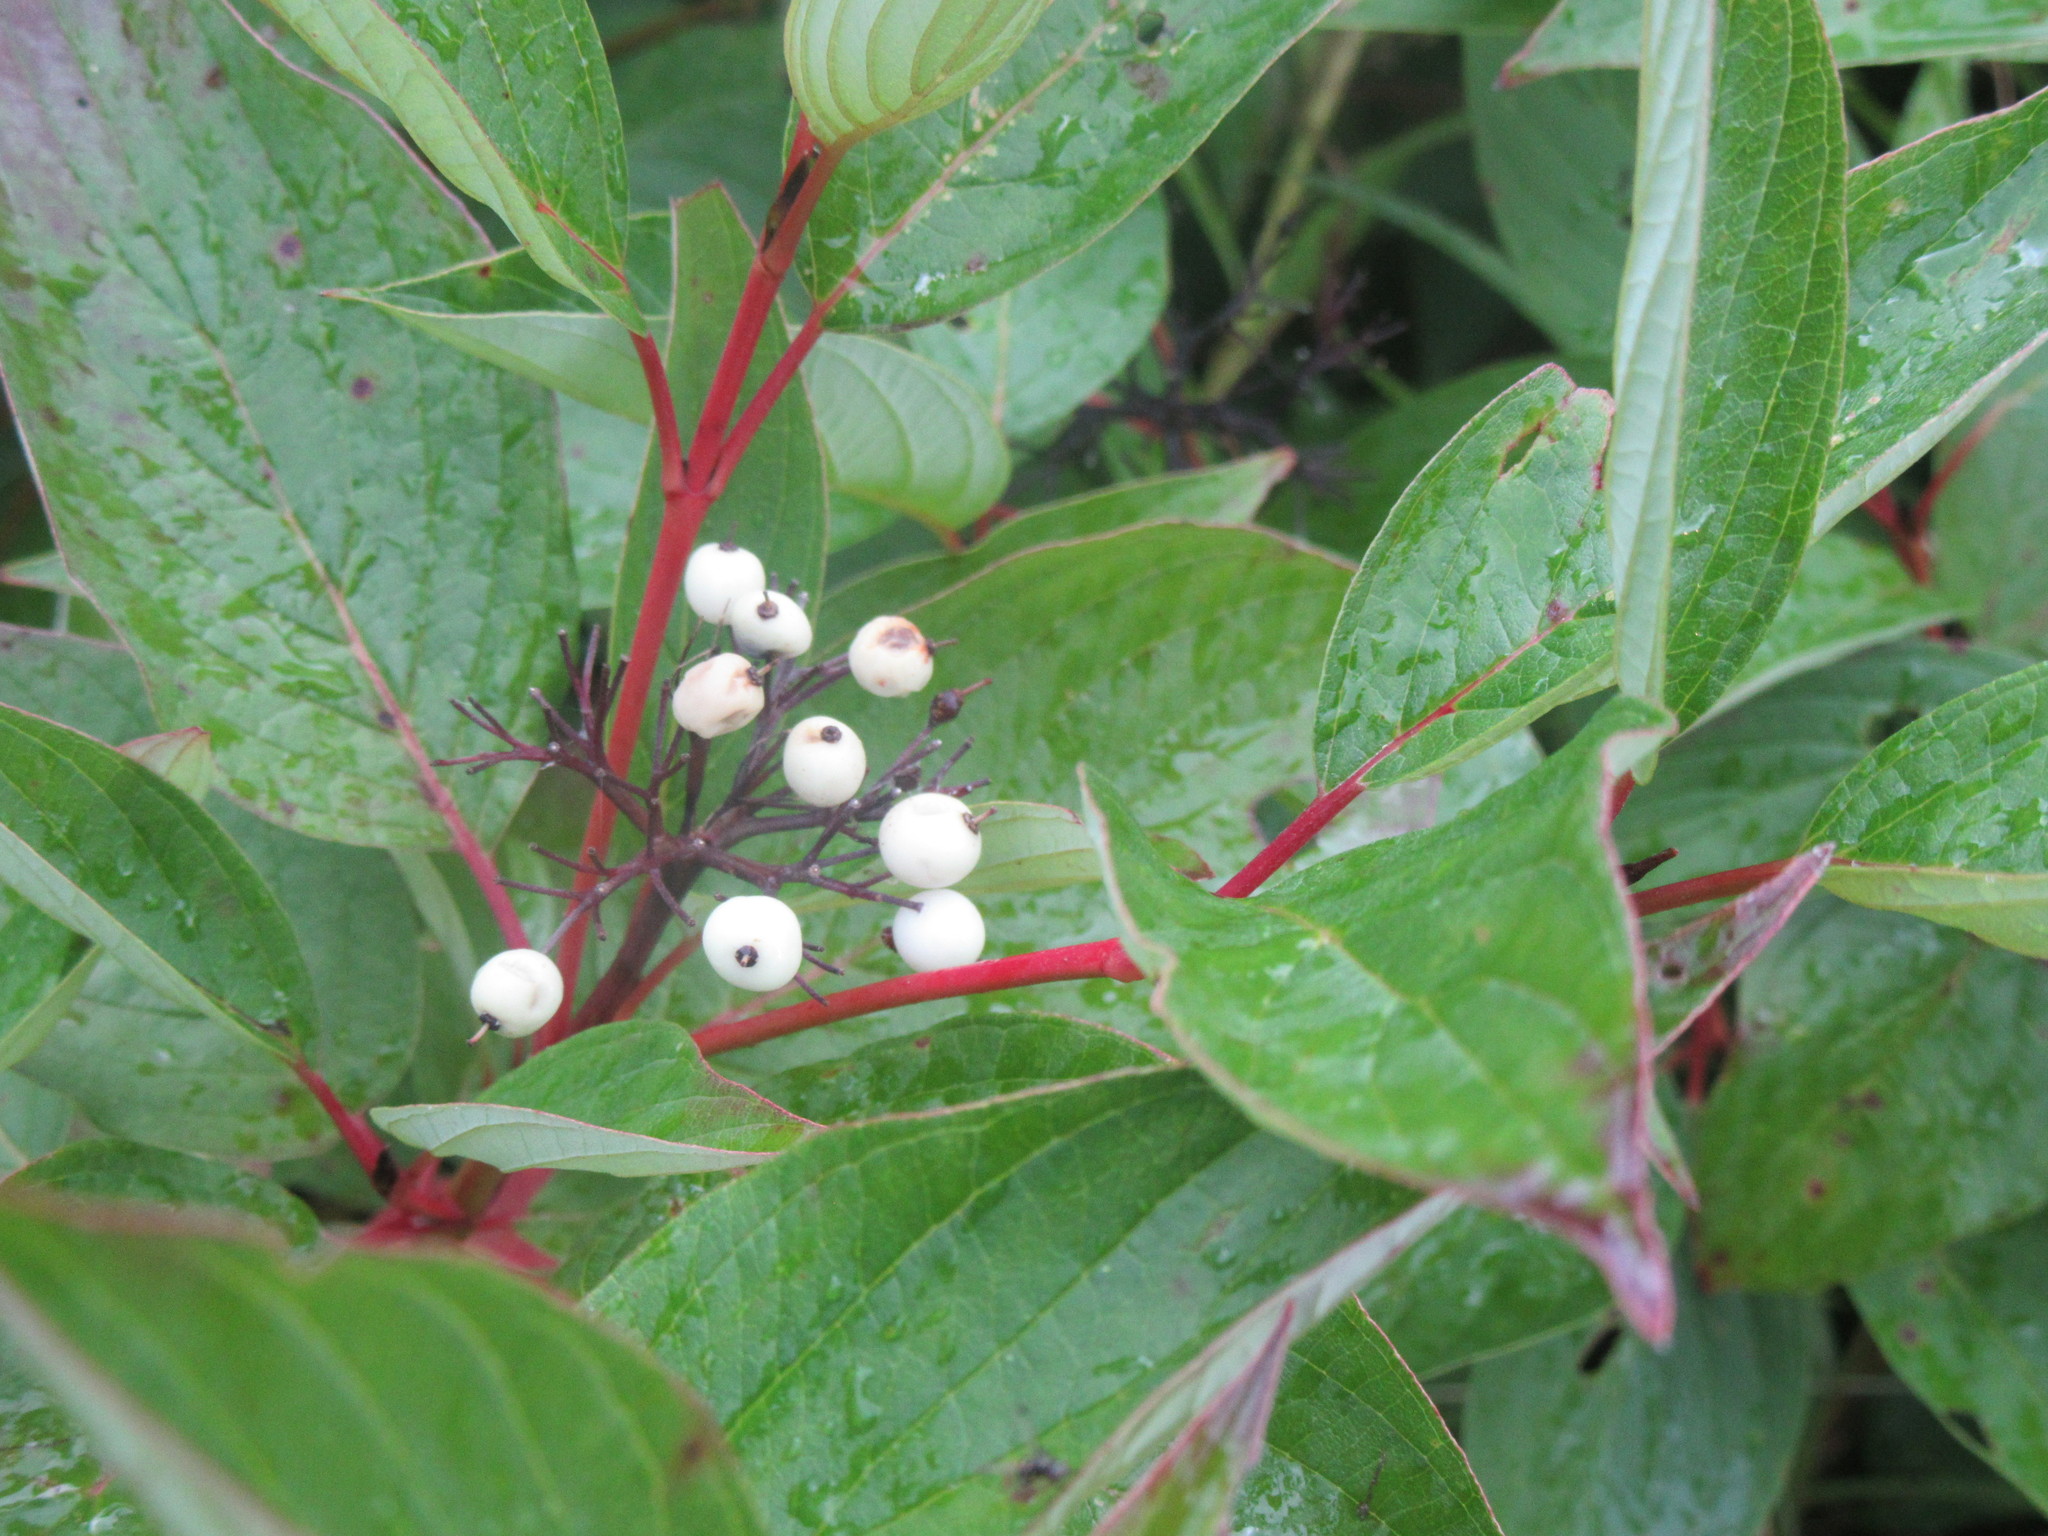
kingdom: Plantae
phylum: Tracheophyta
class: Magnoliopsida
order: Cornales
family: Cornaceae
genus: Cornus
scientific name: Cornus sericea
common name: Red-osier dogwood
